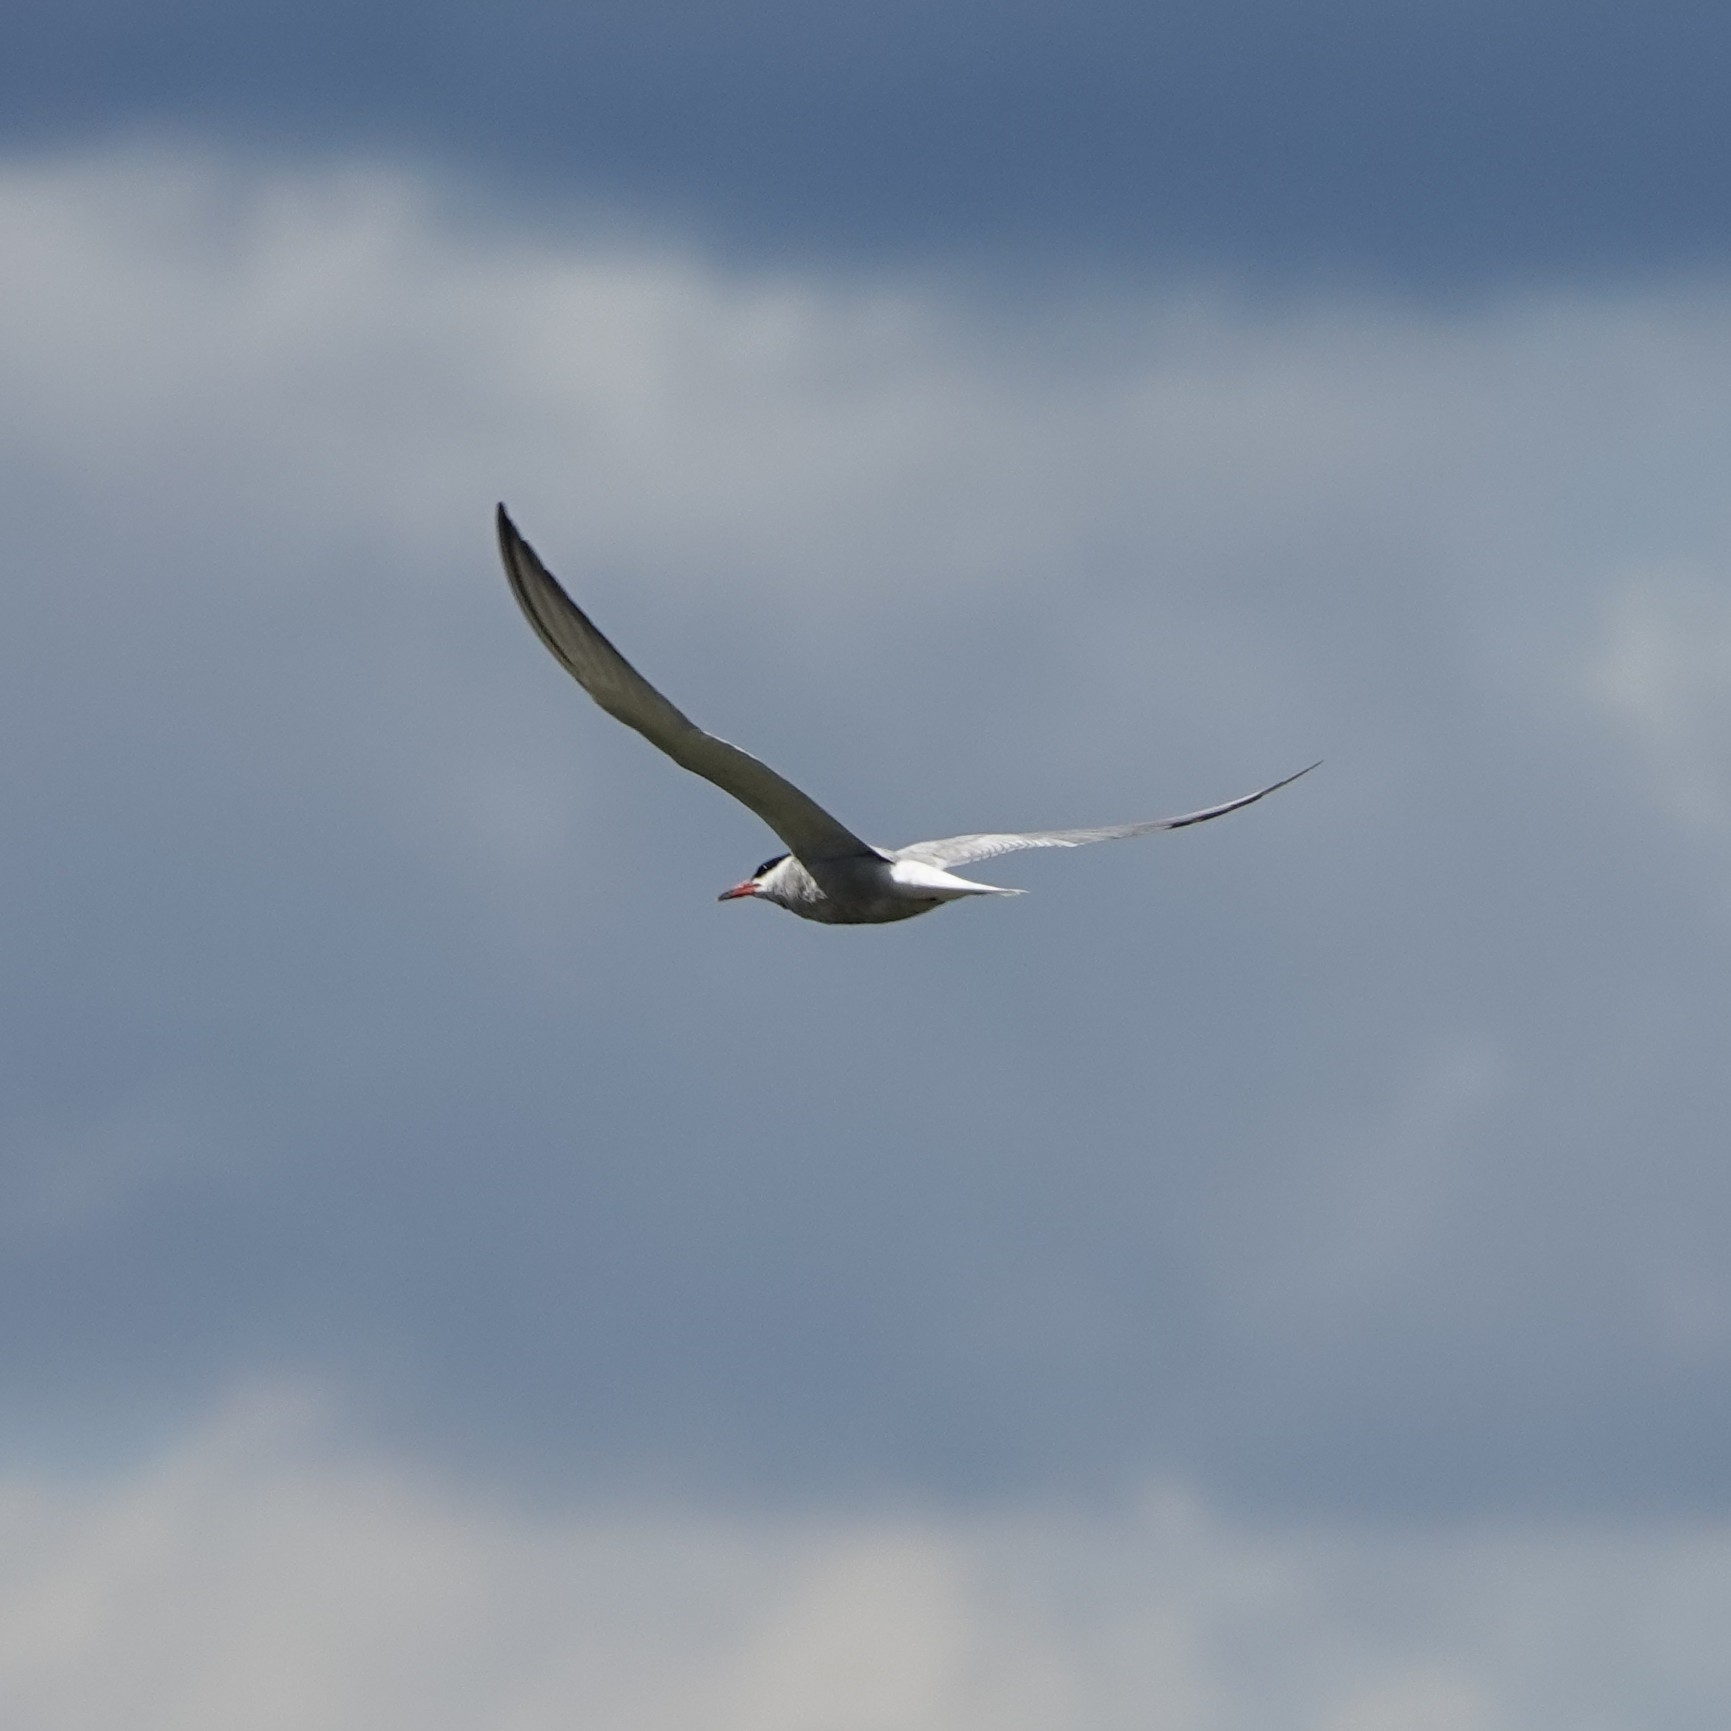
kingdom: Animalia
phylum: Chordata
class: Aves
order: Charadriiformes
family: Laridae
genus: Sterna
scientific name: Sterna hirundo
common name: Common tern
